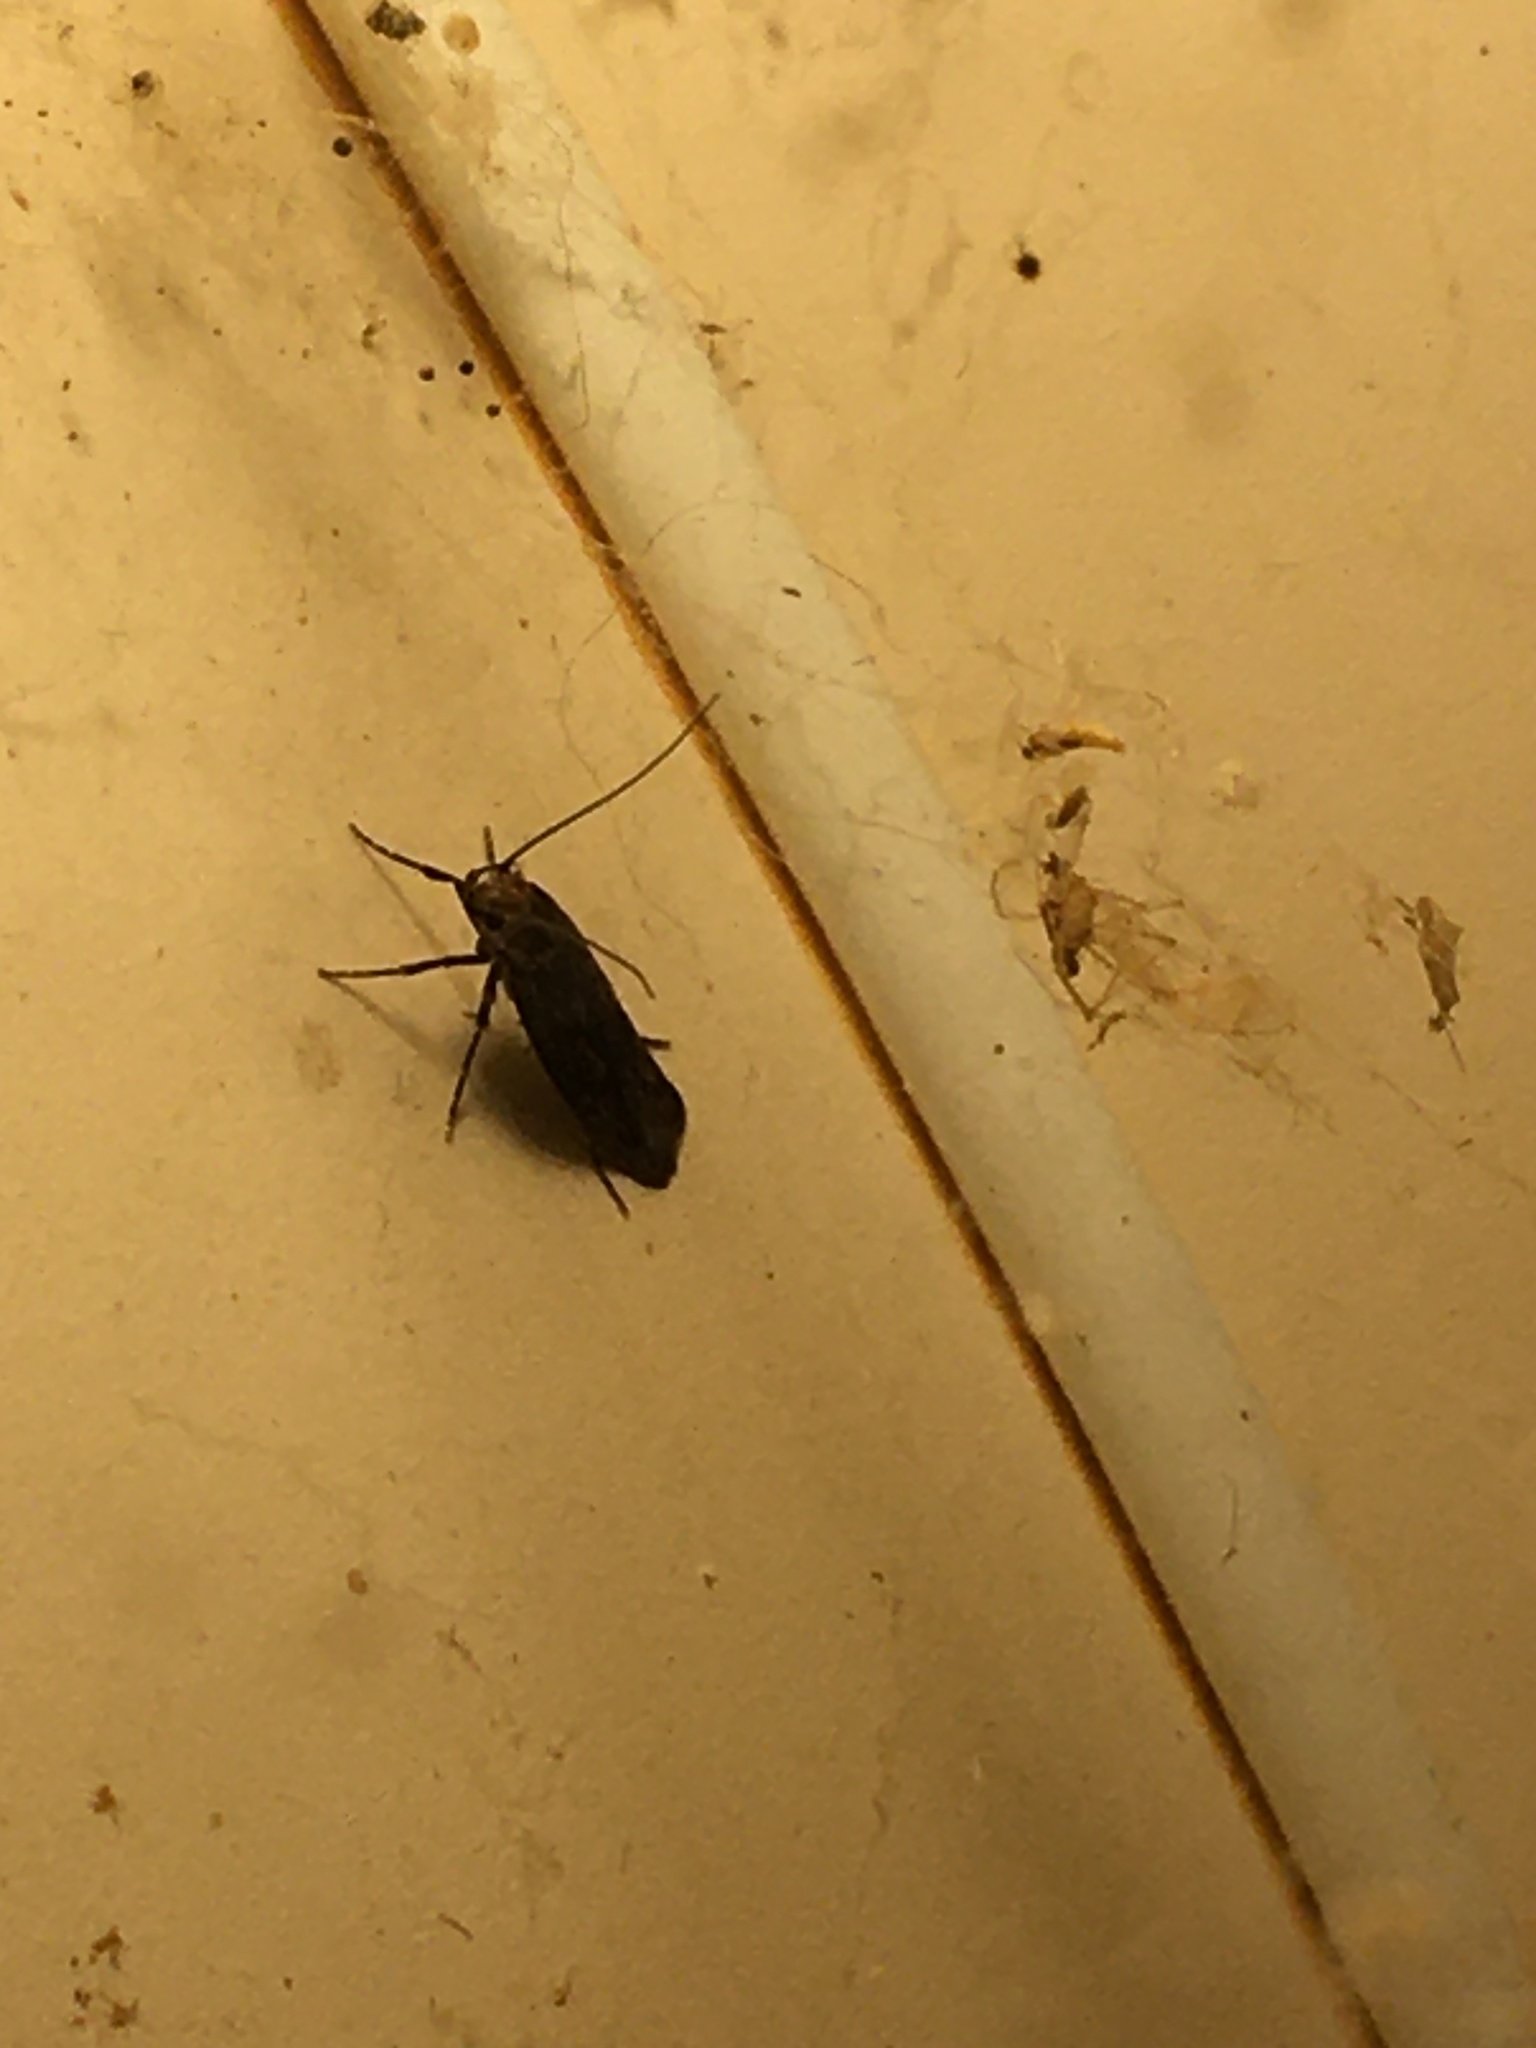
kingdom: Animalia
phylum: Arthropoda
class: Insecta
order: Lepidoptera
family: Oecophoridae
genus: Hofmannophila
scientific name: Hofmannophila pseudospretella
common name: Brown house moth
